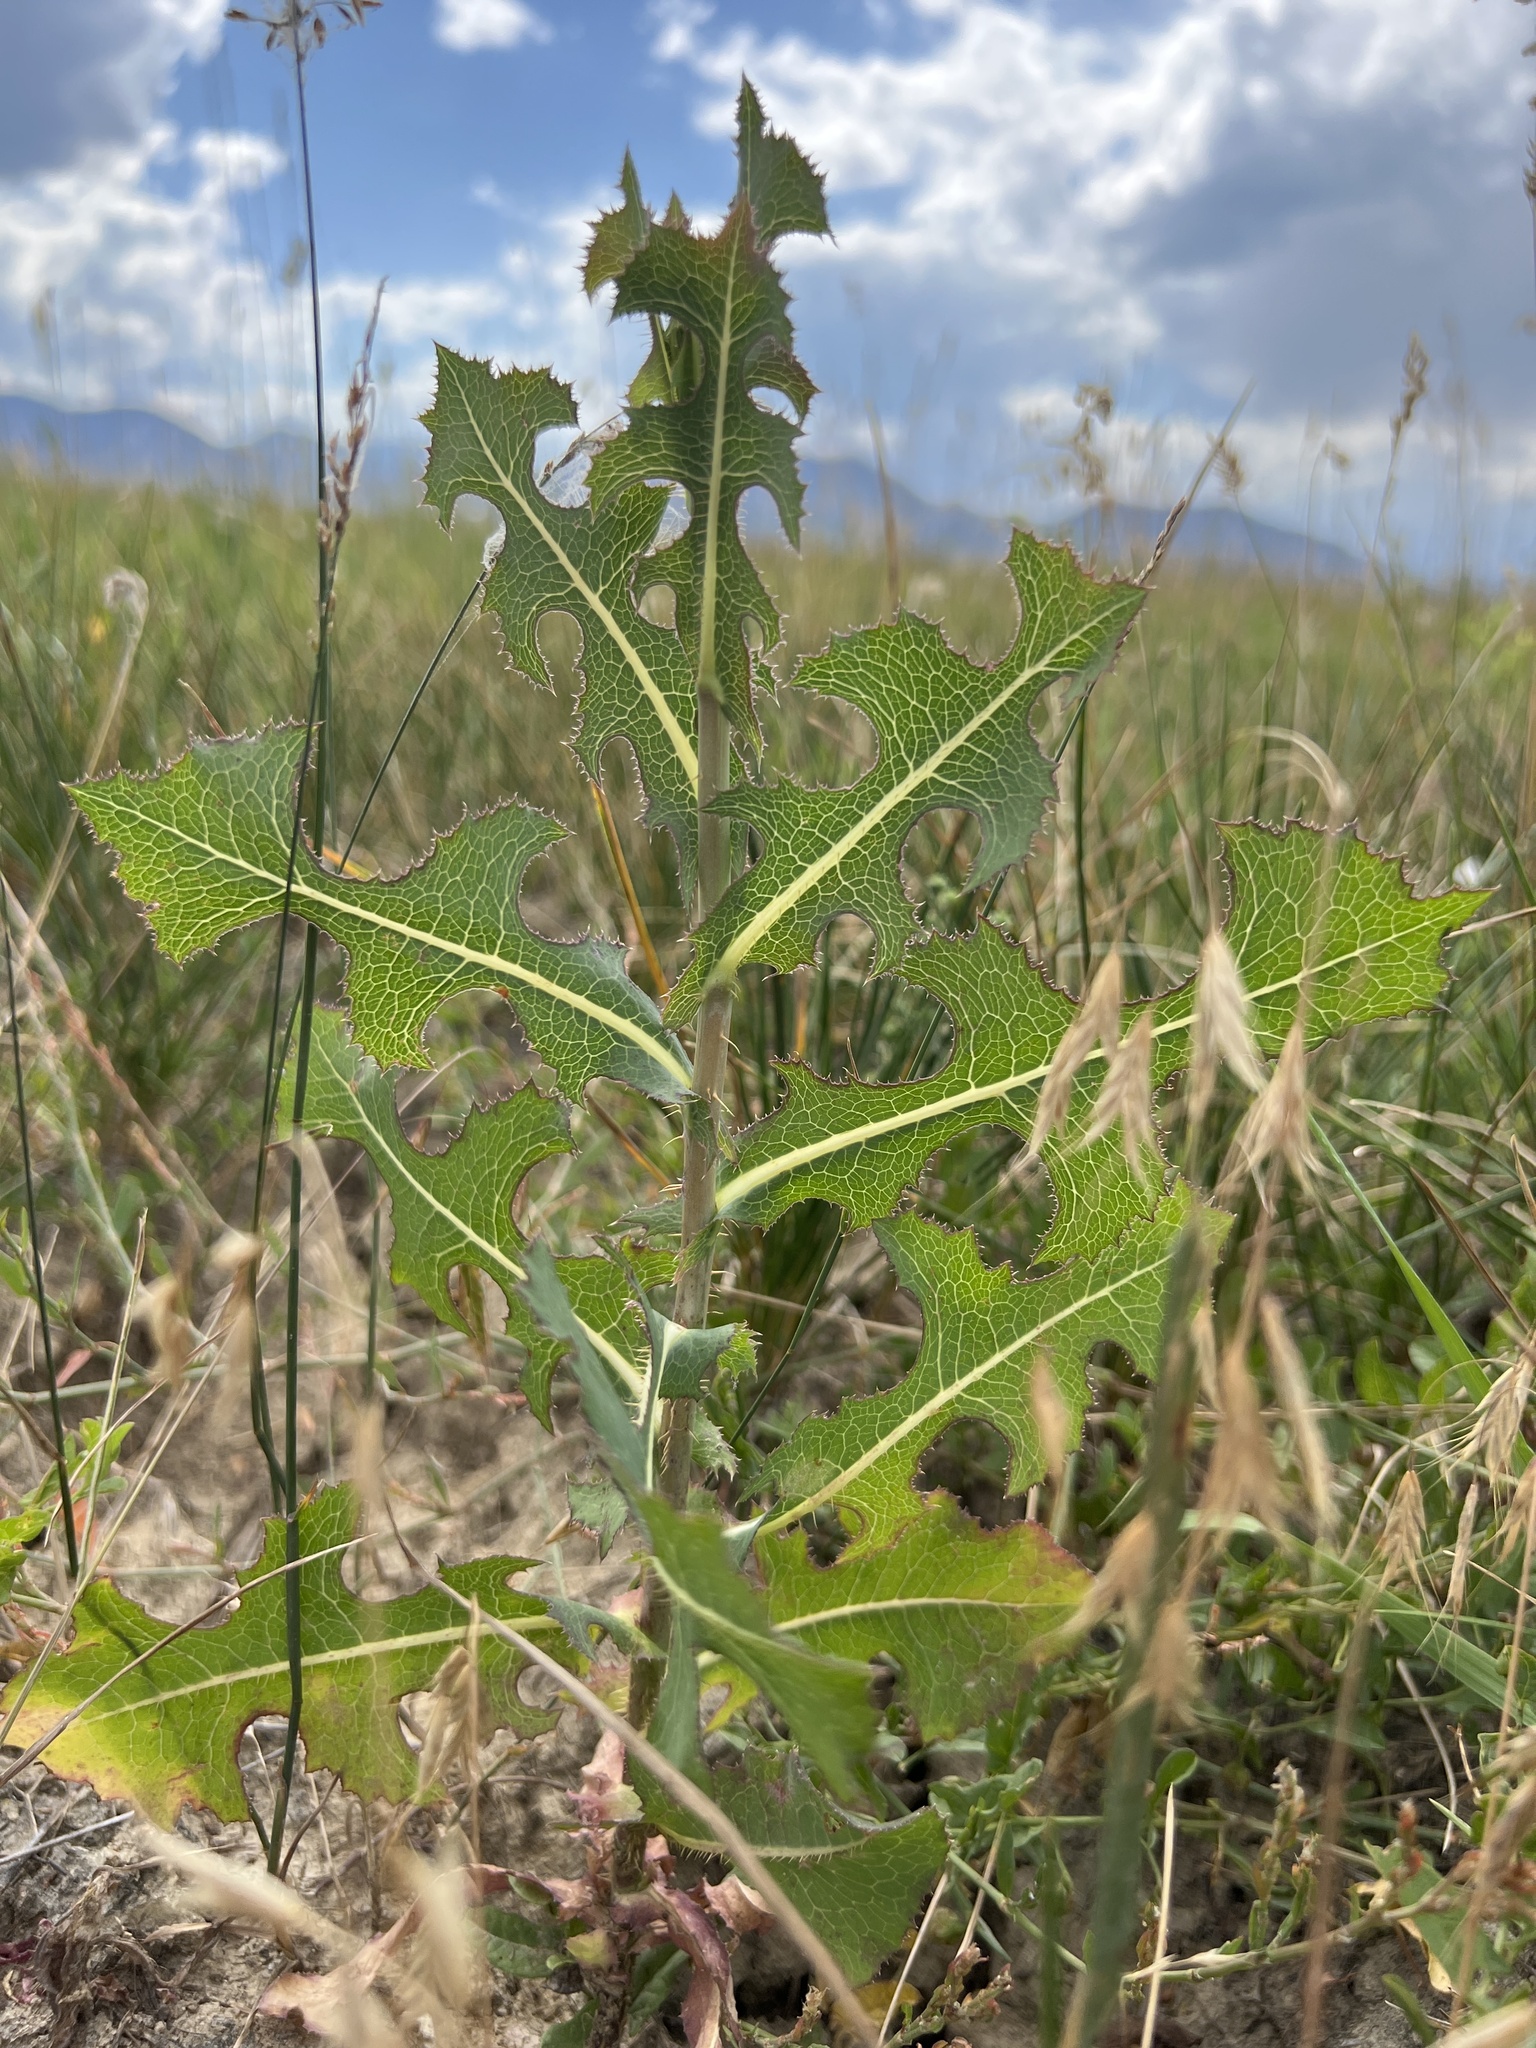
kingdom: Plantae
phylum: Tracheophyta
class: Magnoliopsida
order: Asterales
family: Asteraceae
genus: Lactuca
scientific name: Lactuca serriola
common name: Prickly lettuce
